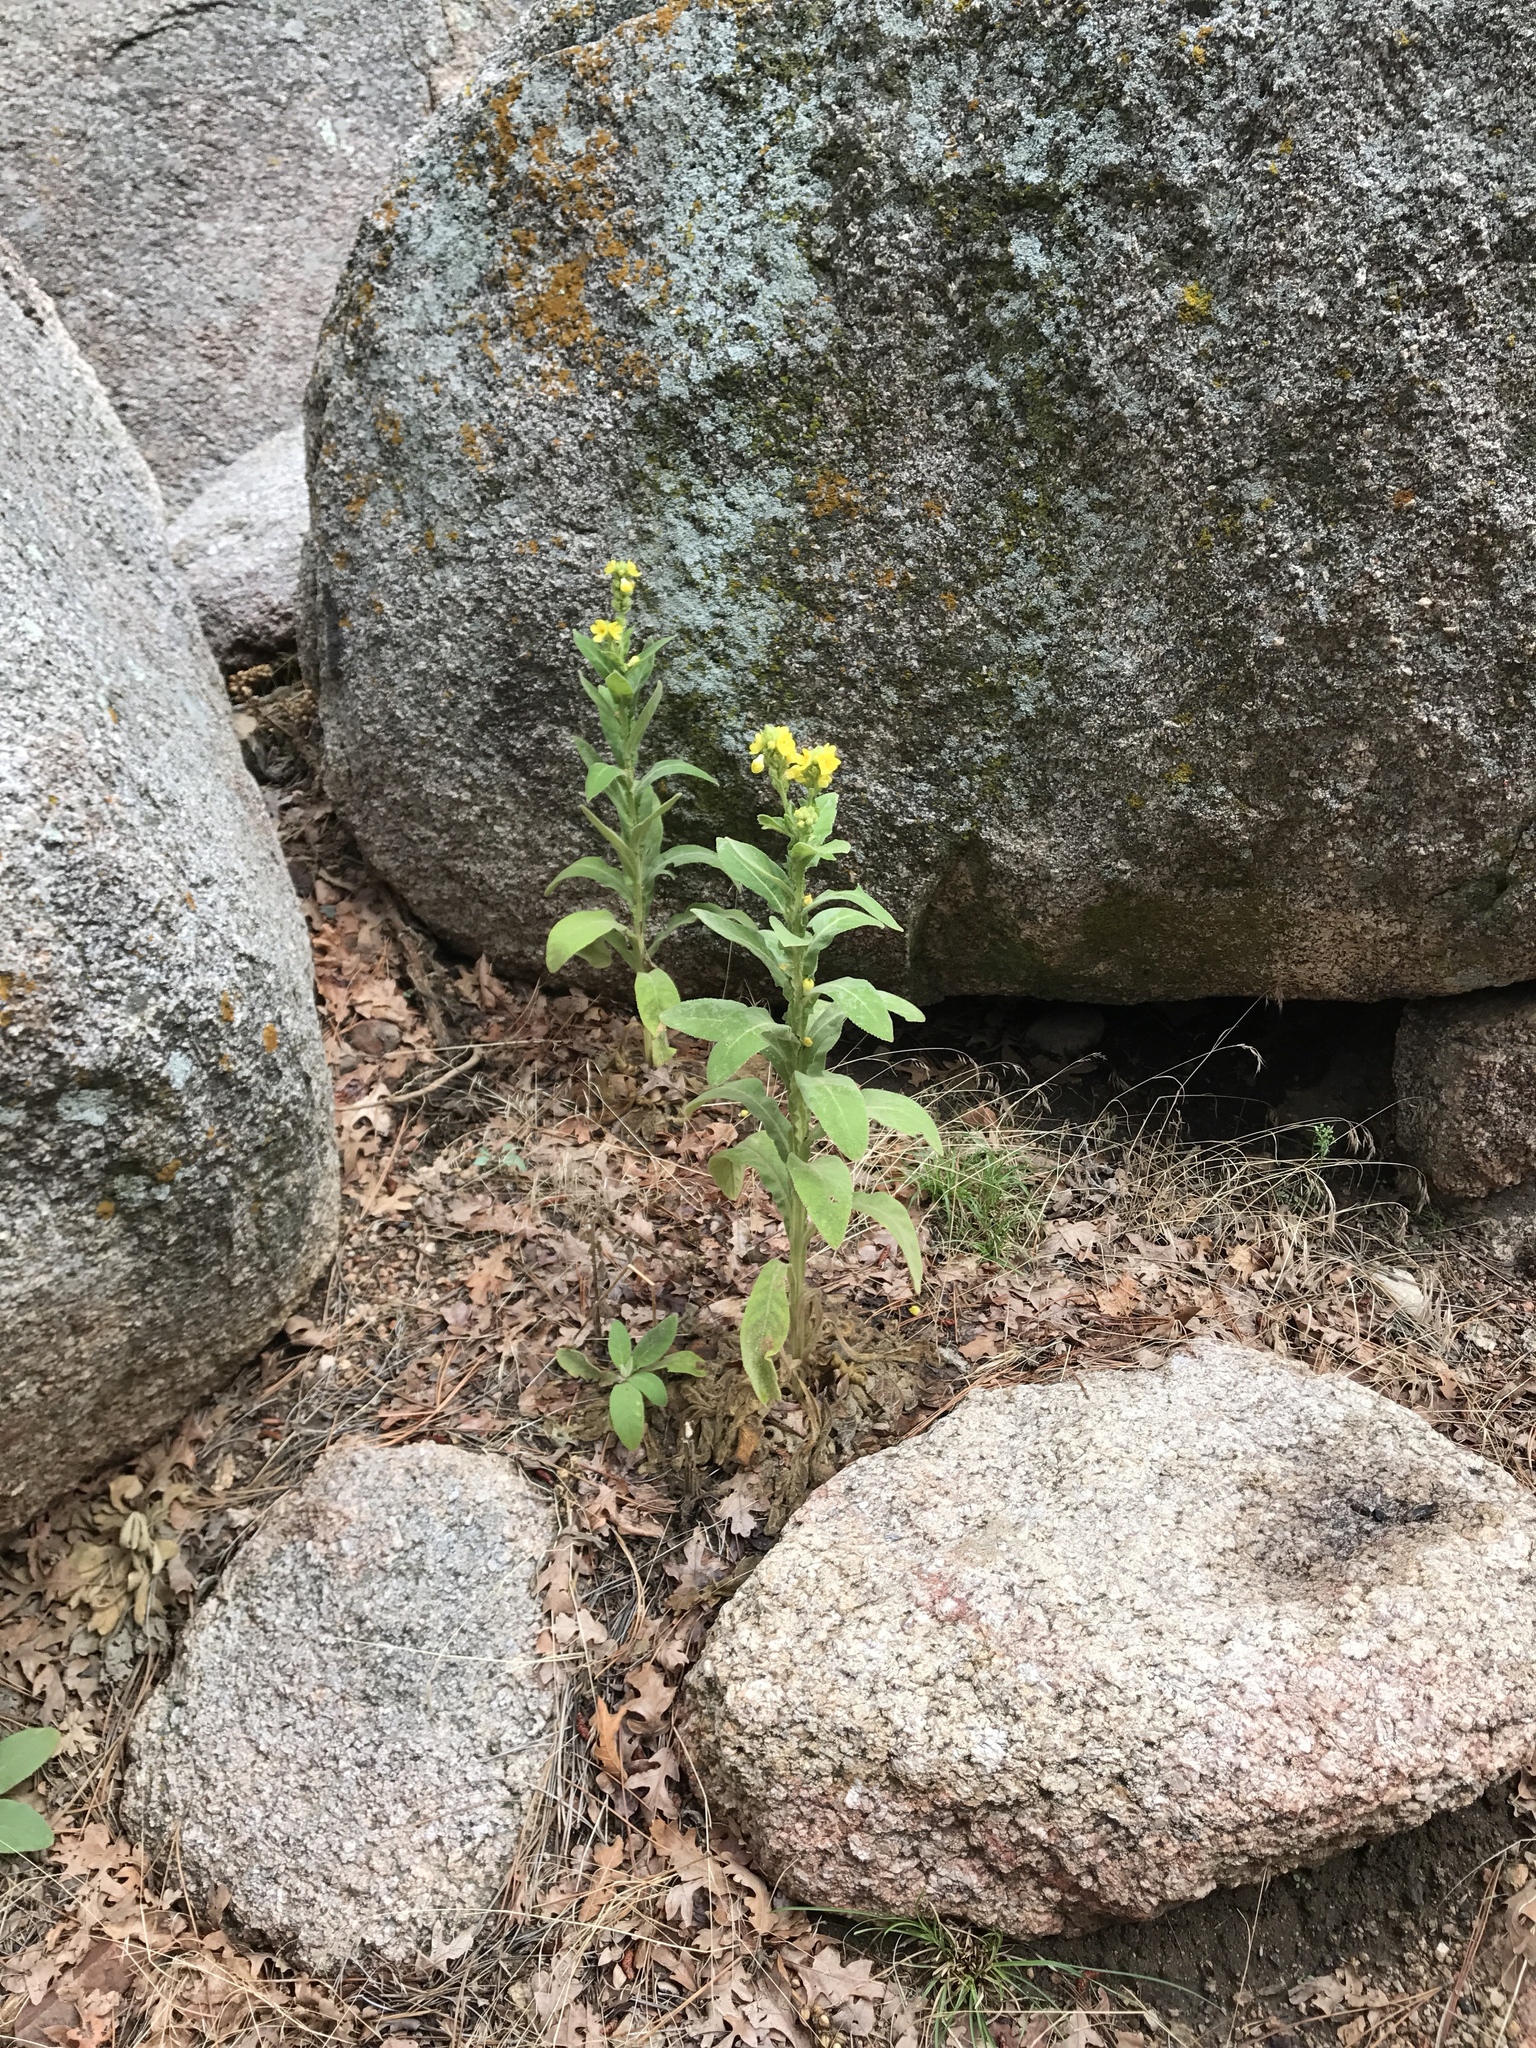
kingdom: Plantae
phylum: Tracheophyta
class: Magnoliopsida
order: Lamiales
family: Scrophulariaceae
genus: Verbascum
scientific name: Verbascum thapsus
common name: Common mullein
